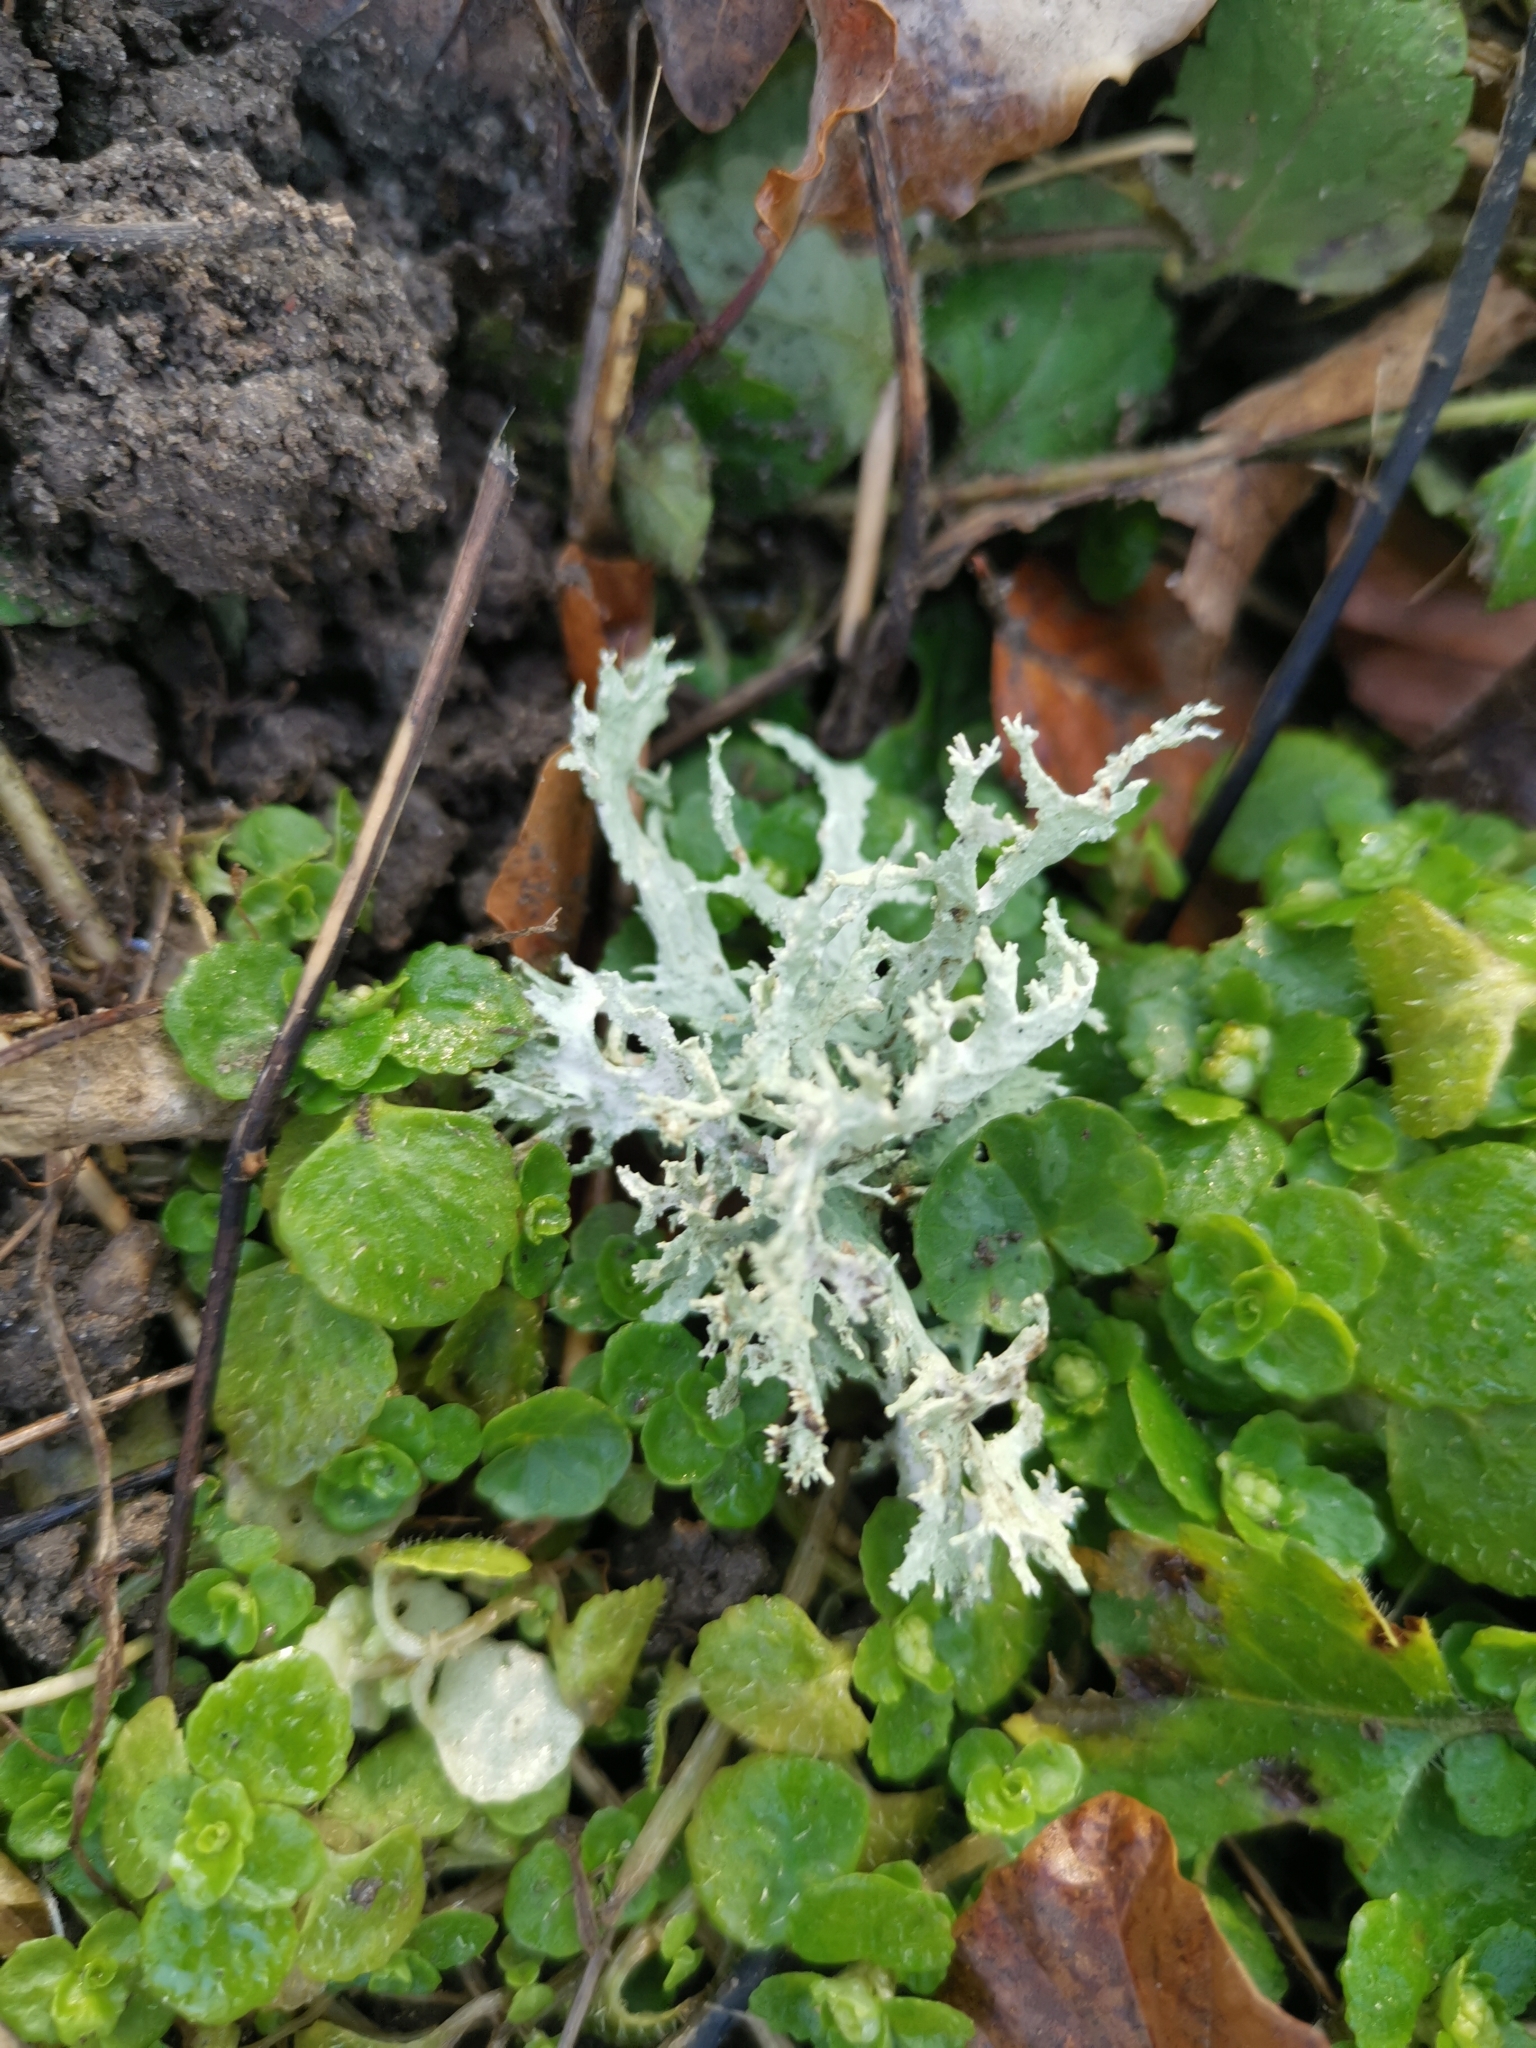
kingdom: Fungi
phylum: Ascomycota
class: Lecanoromycetes
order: Lecanorales
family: Parmeliaceae
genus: Evernia
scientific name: Evernia prunastri
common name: Oak moss
